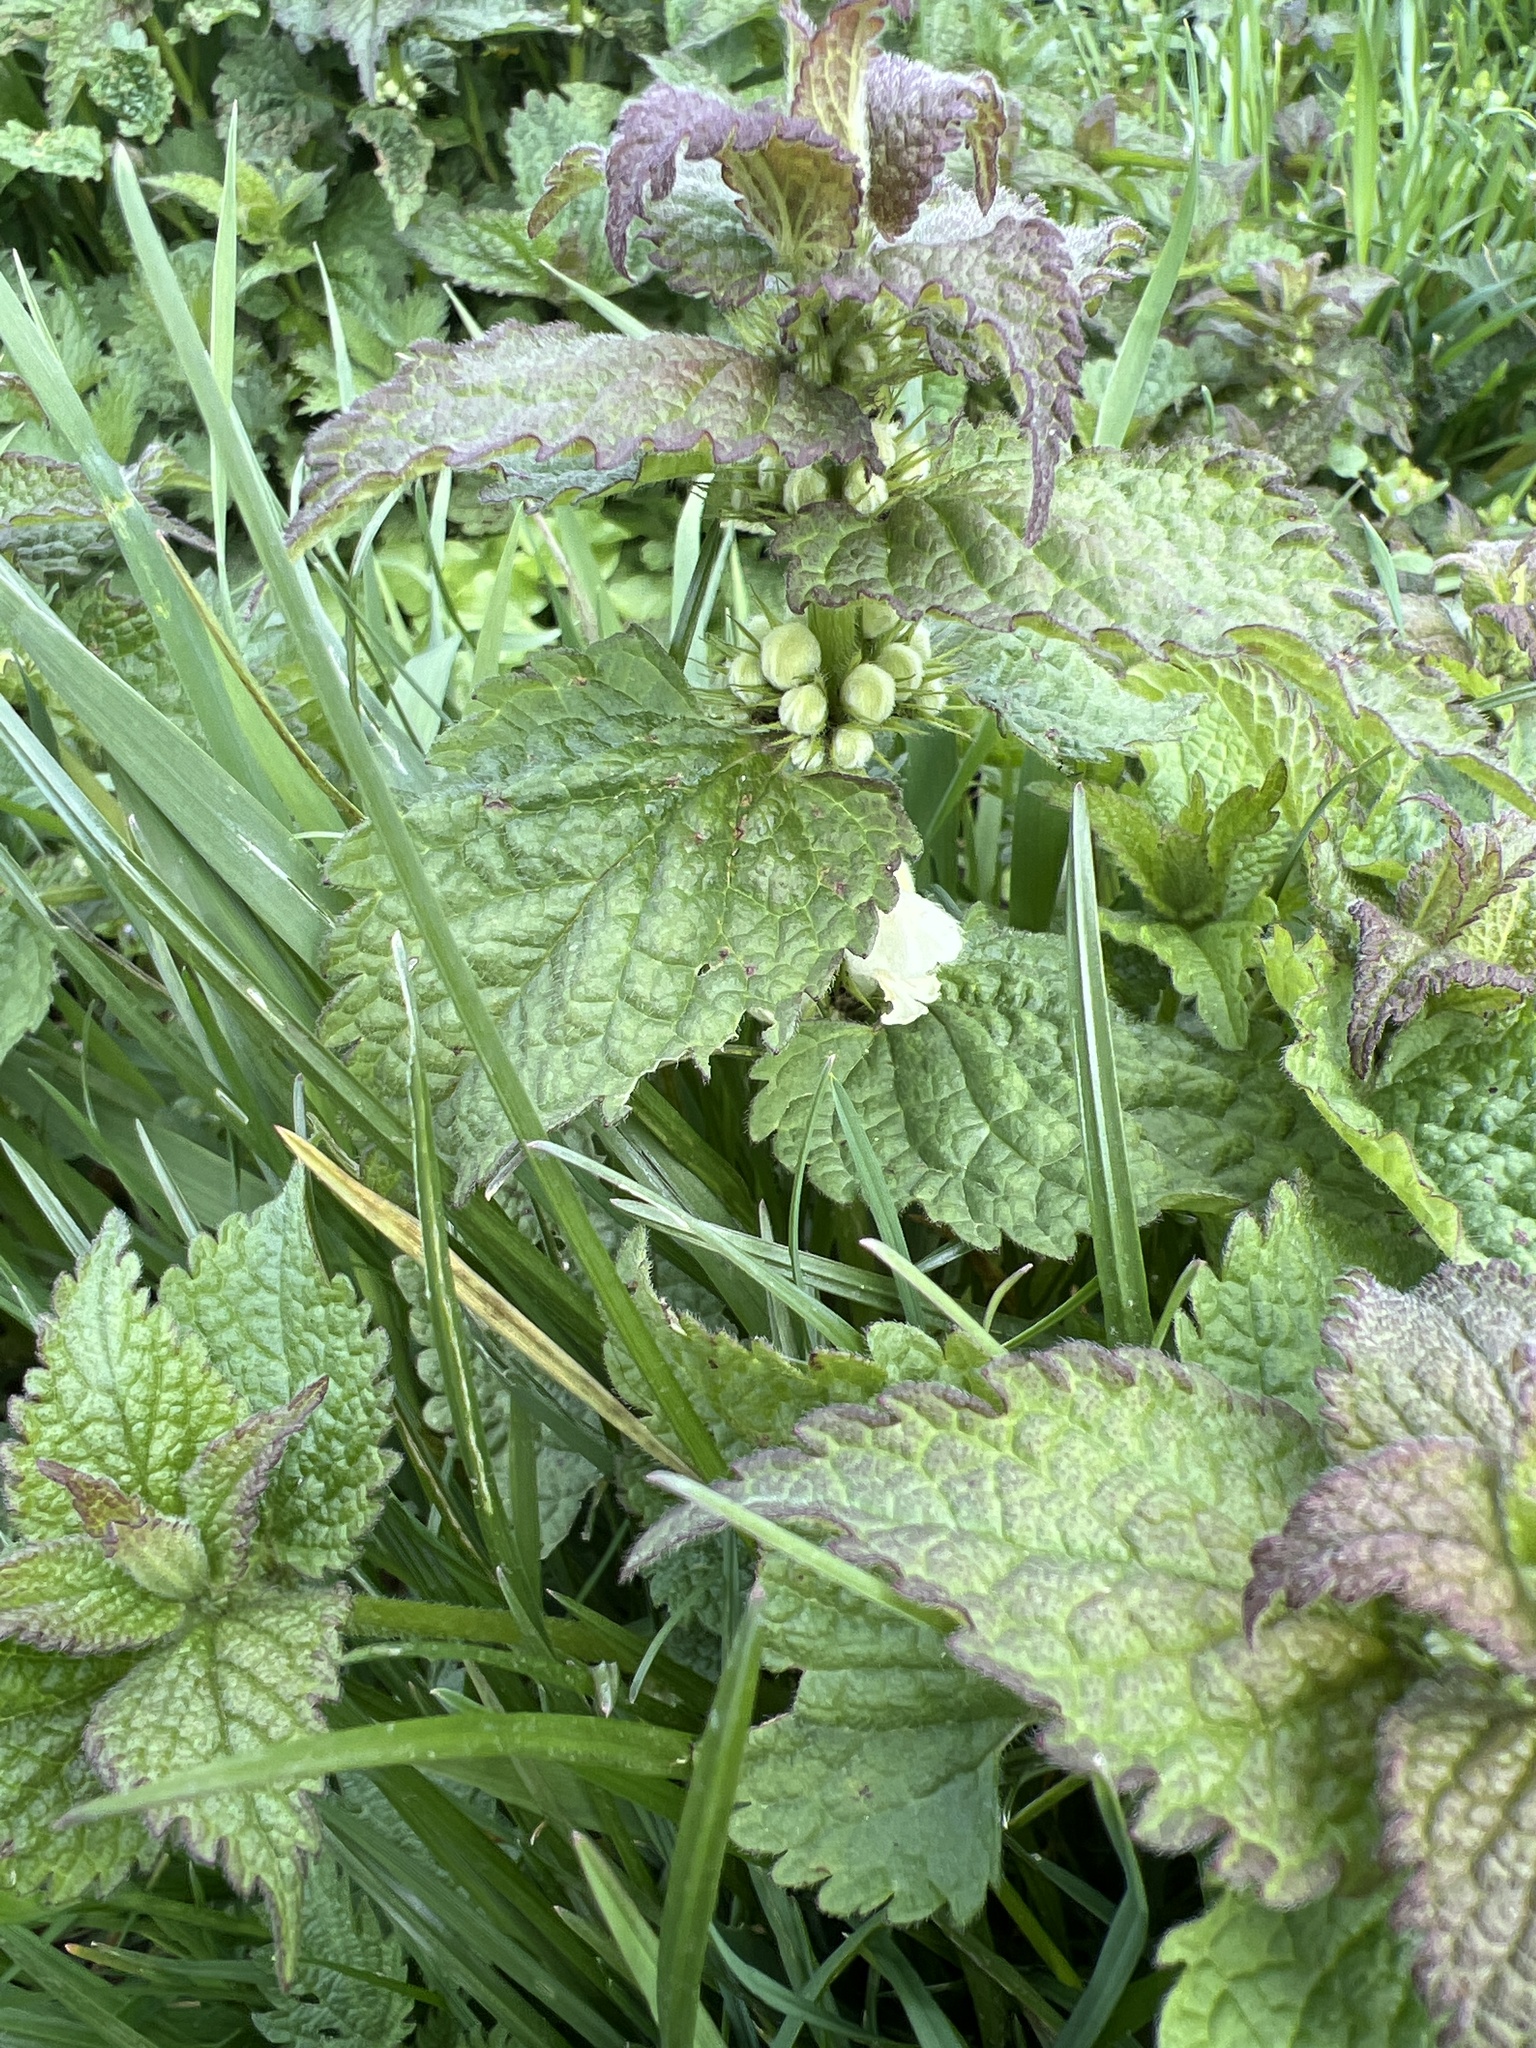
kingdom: Plantae
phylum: Tracheophyta
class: Magnoliopsida
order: Lamiales
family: Lamiaceae
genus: Lamium
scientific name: Lamium album
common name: White dead-nettle
